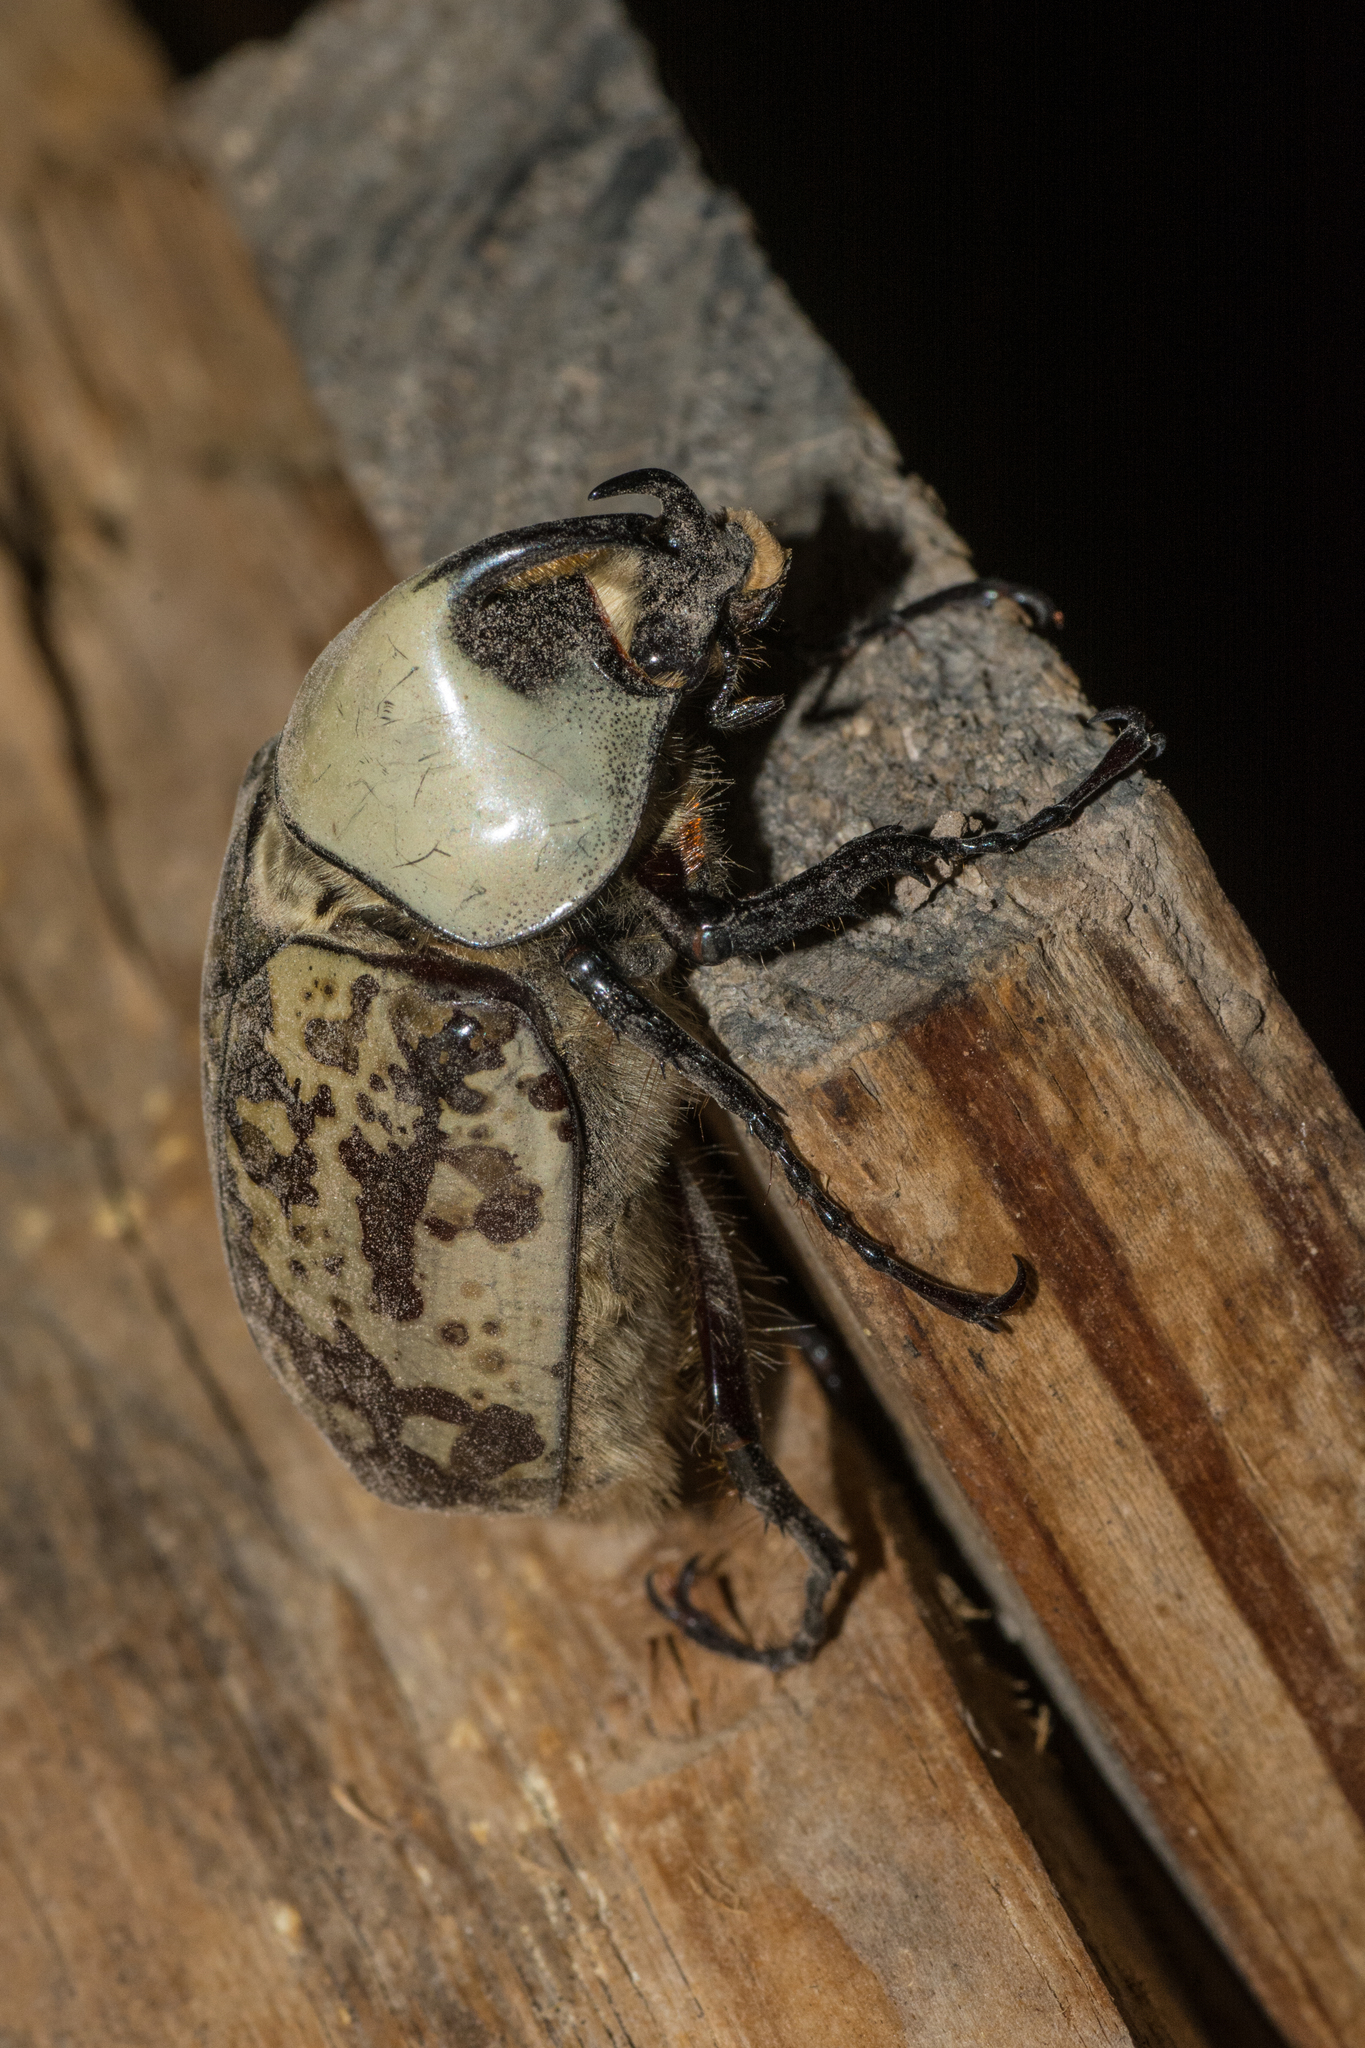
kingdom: Animalia
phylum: Arthropoda
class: Insecta
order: Coleoptera
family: Scarabaeidae
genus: Dynastes
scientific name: Dynastes grantii
